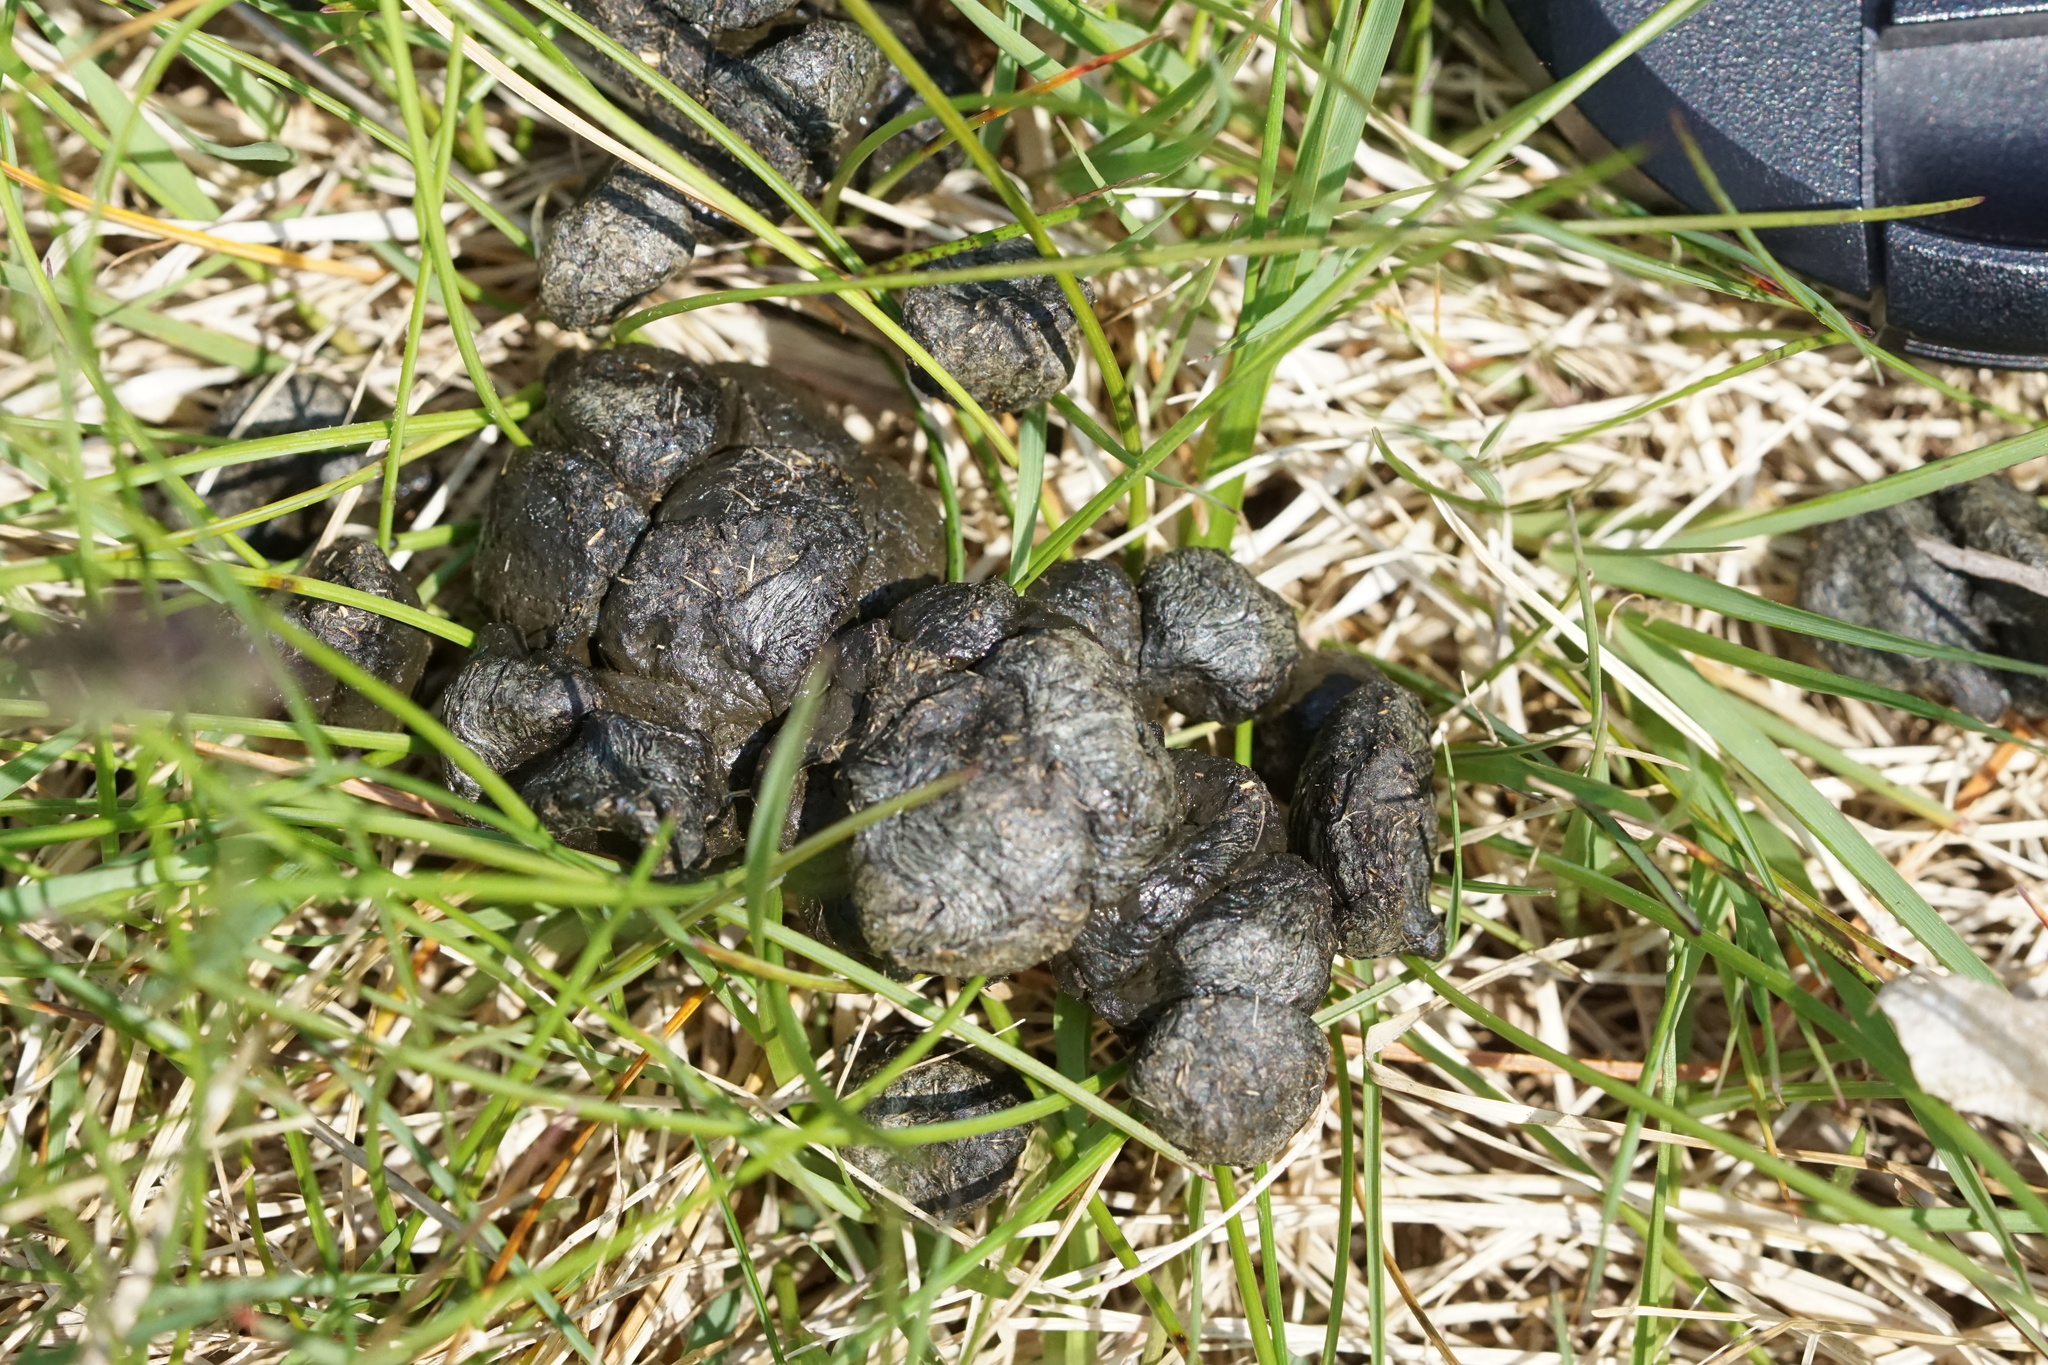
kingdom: Animalia
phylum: Chordata
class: Mammalia
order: Artiodactyla
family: Cervidae
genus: Odocoileus
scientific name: Odocoileus virginianus
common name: White-tailed deer
